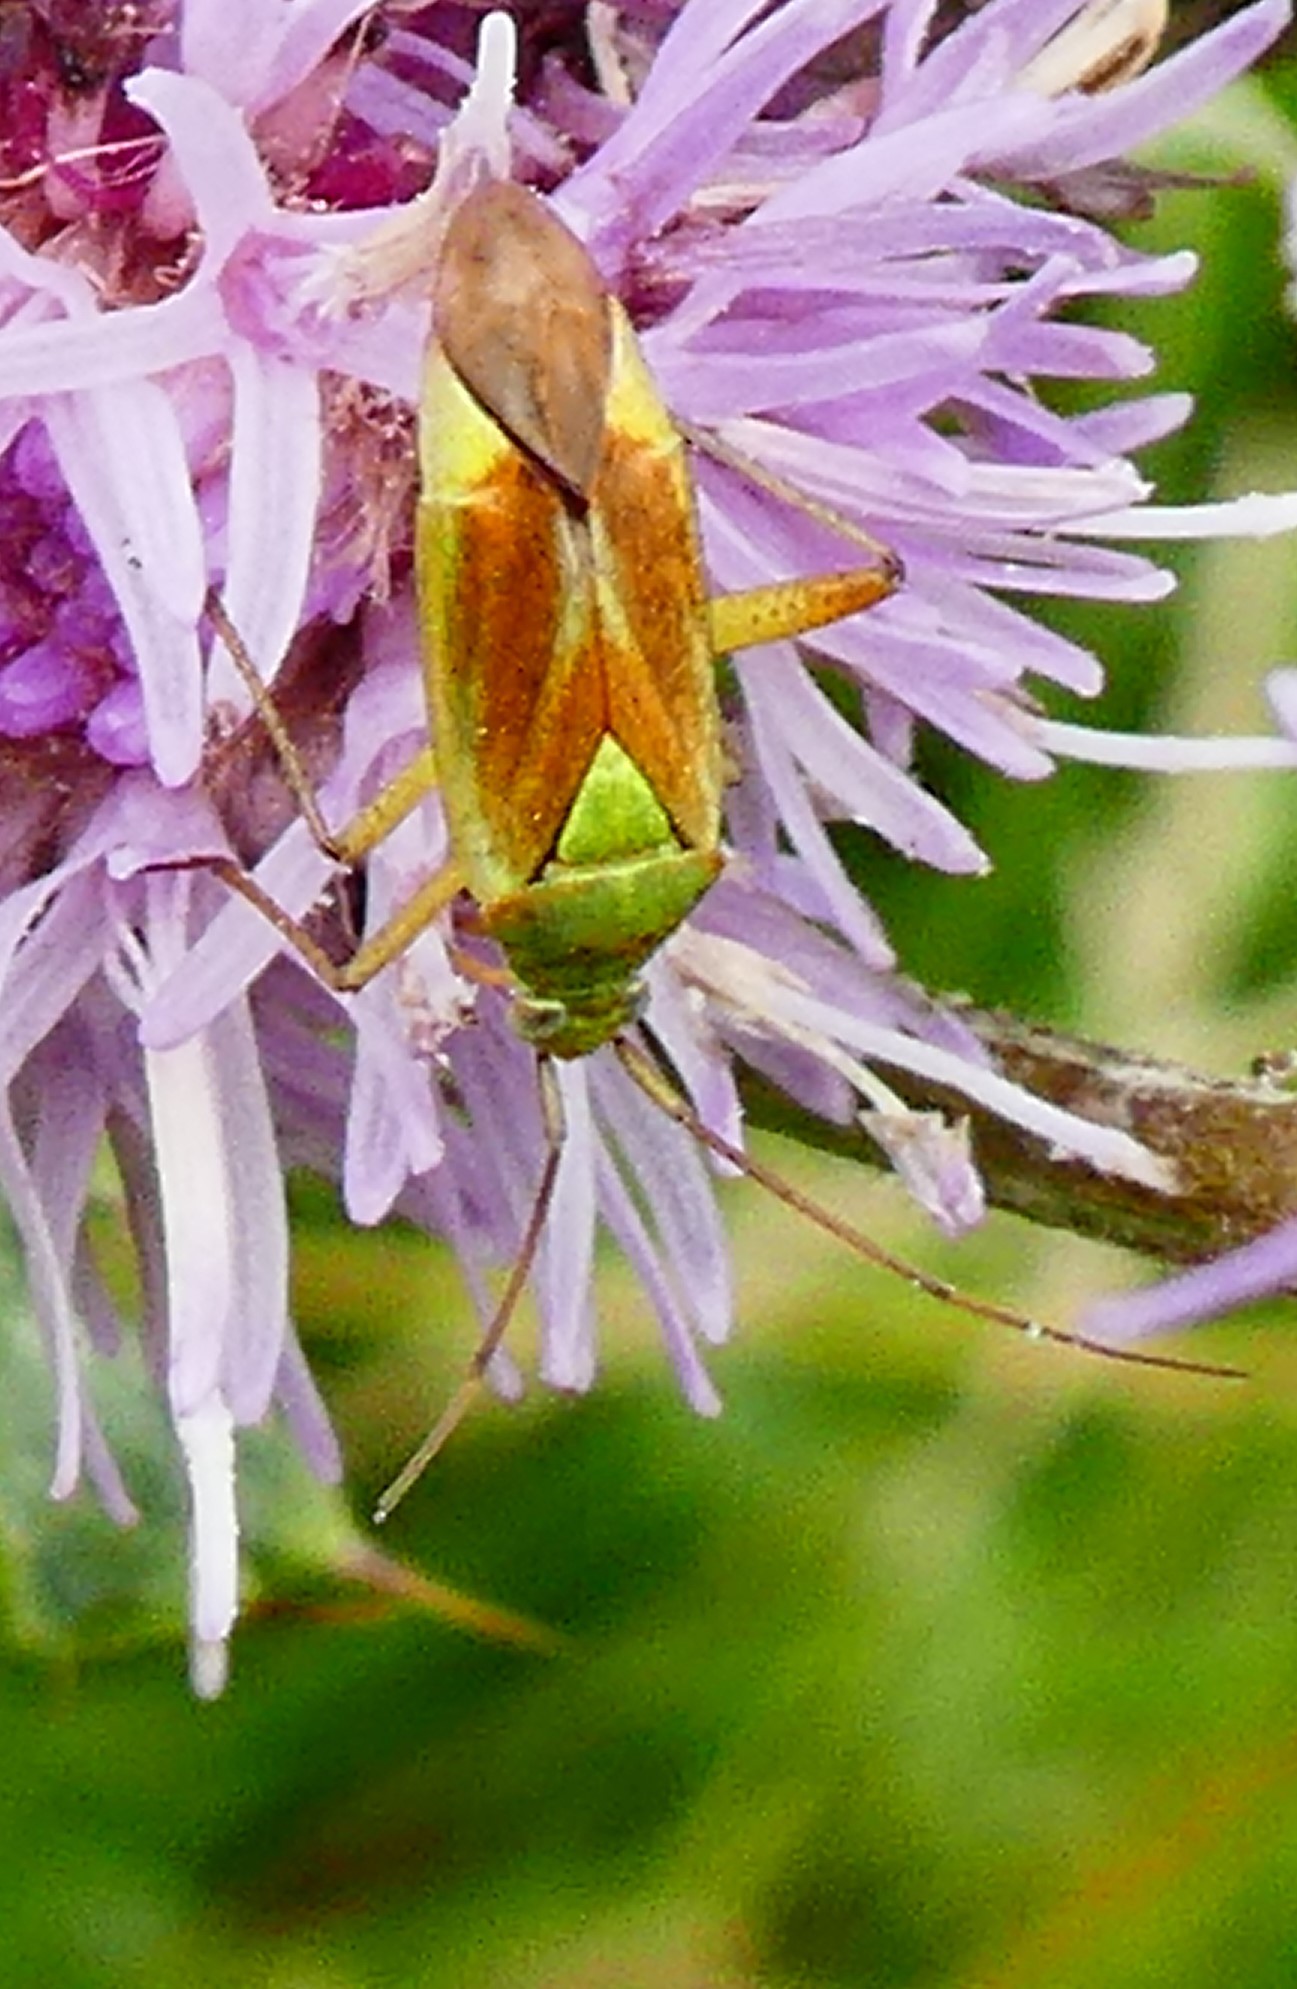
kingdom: Animalia
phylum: Arthropoda
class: Insecta
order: Hemiptera
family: Miridae
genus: Closterotomus
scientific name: Closterotomus norvegicus
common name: Plant bug
